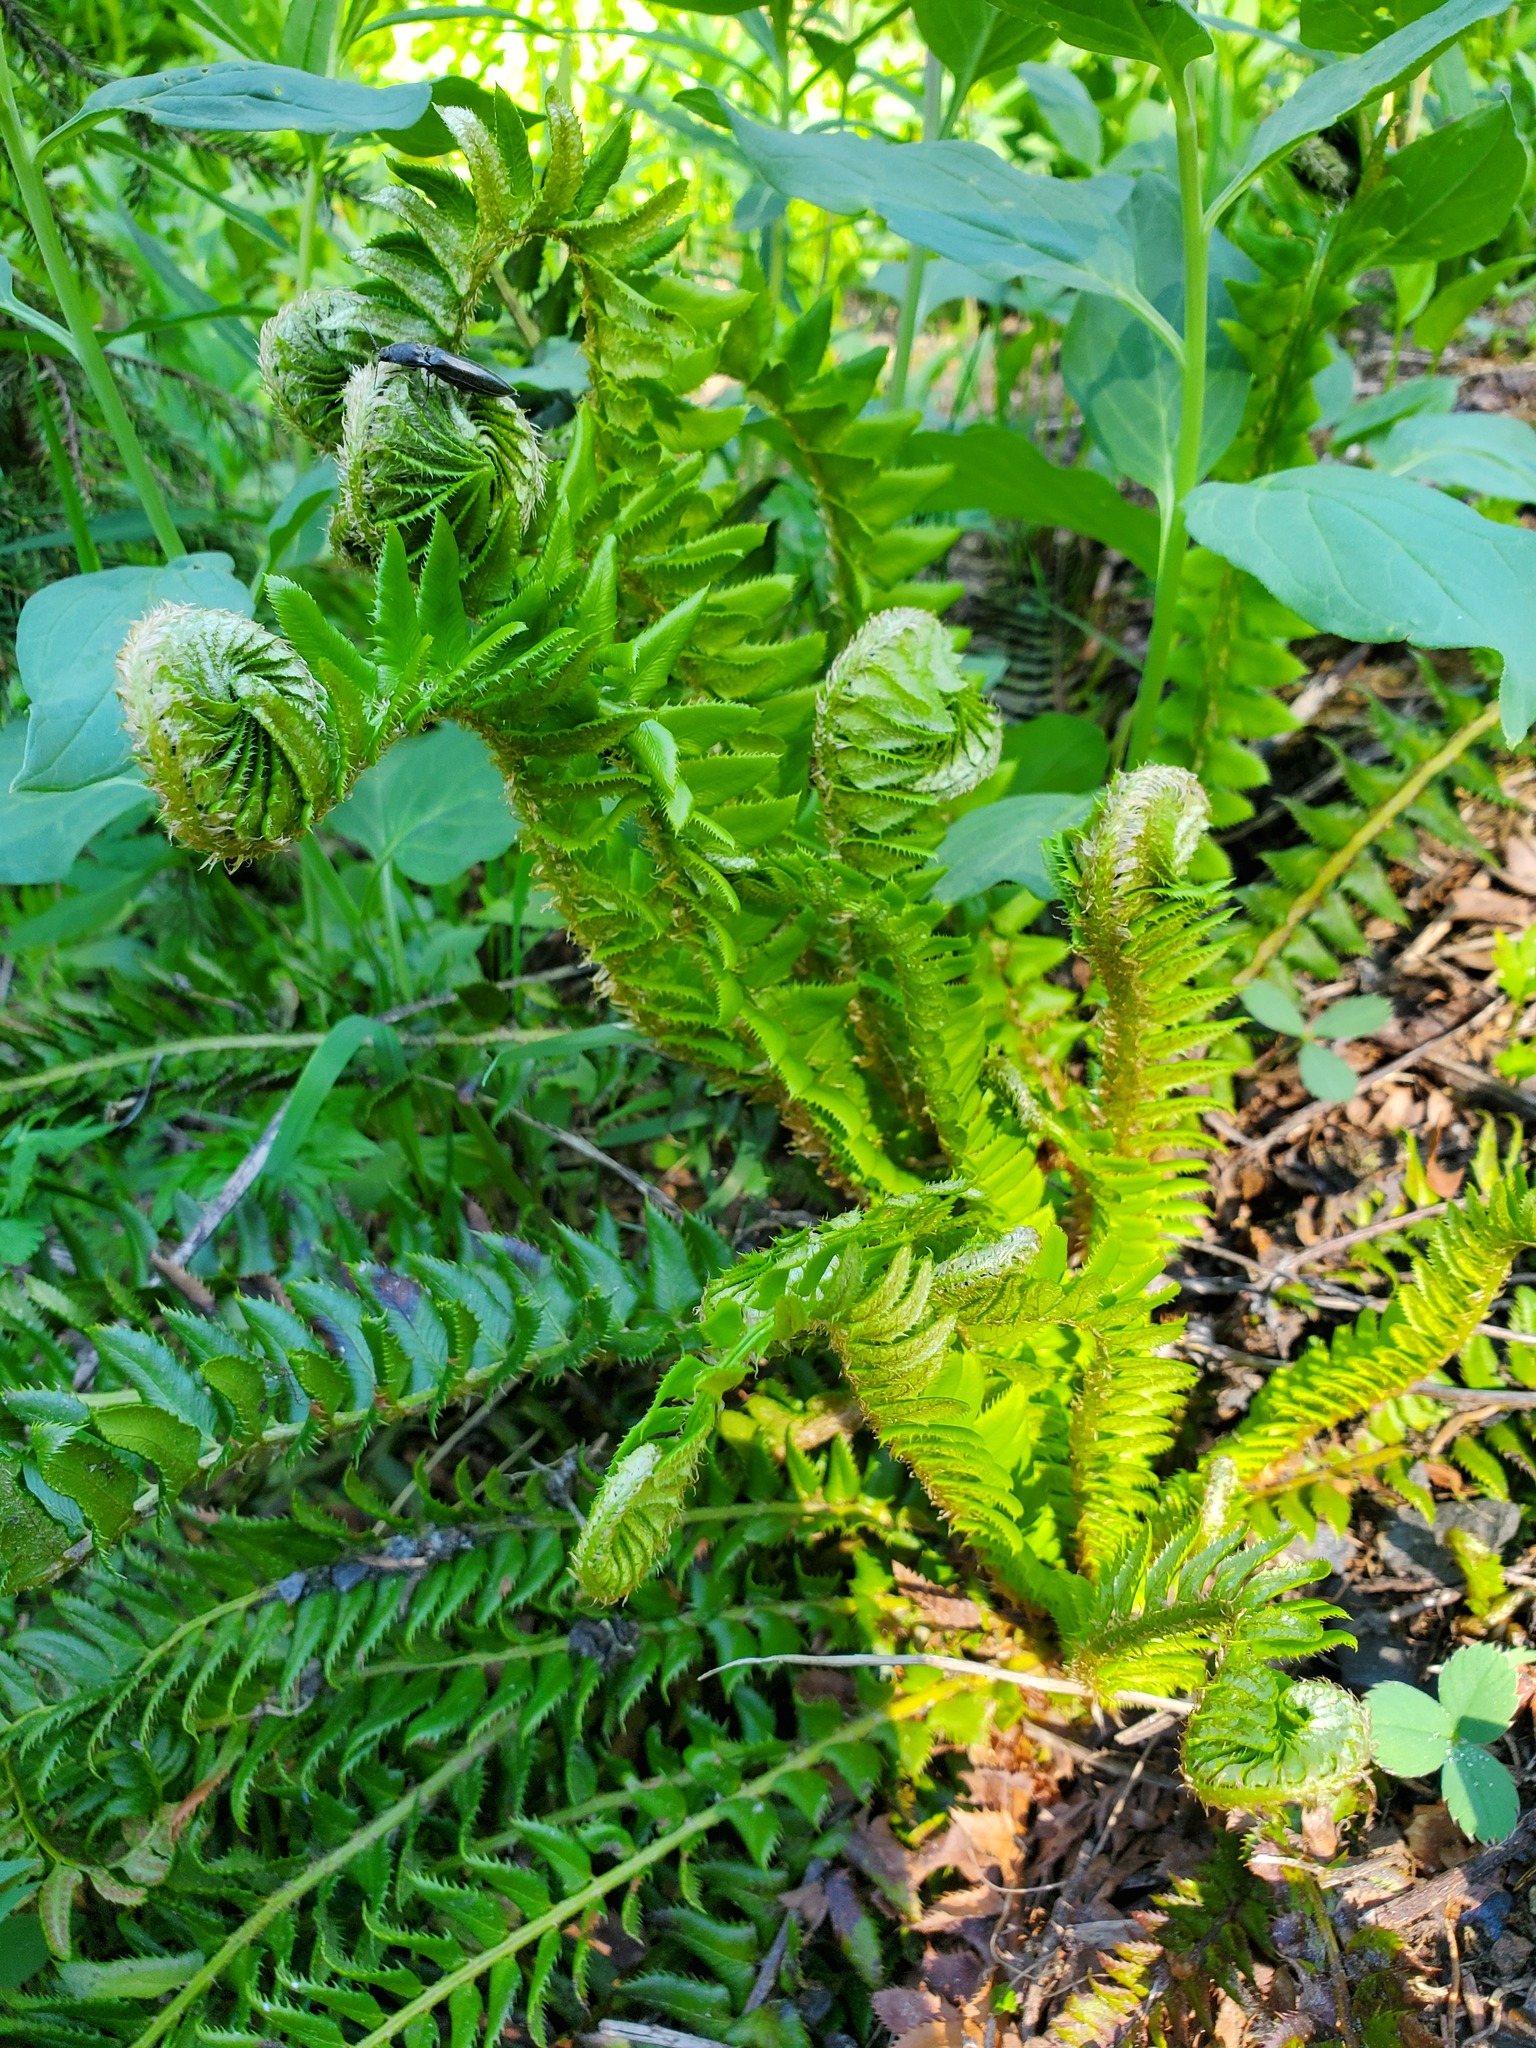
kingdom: Plantae
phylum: Tracheophyta
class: Polypodiopsida
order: Polypodiales
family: Dryopteridaceae
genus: Polystichum
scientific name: Polystichum lonchitis
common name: Holly fern
